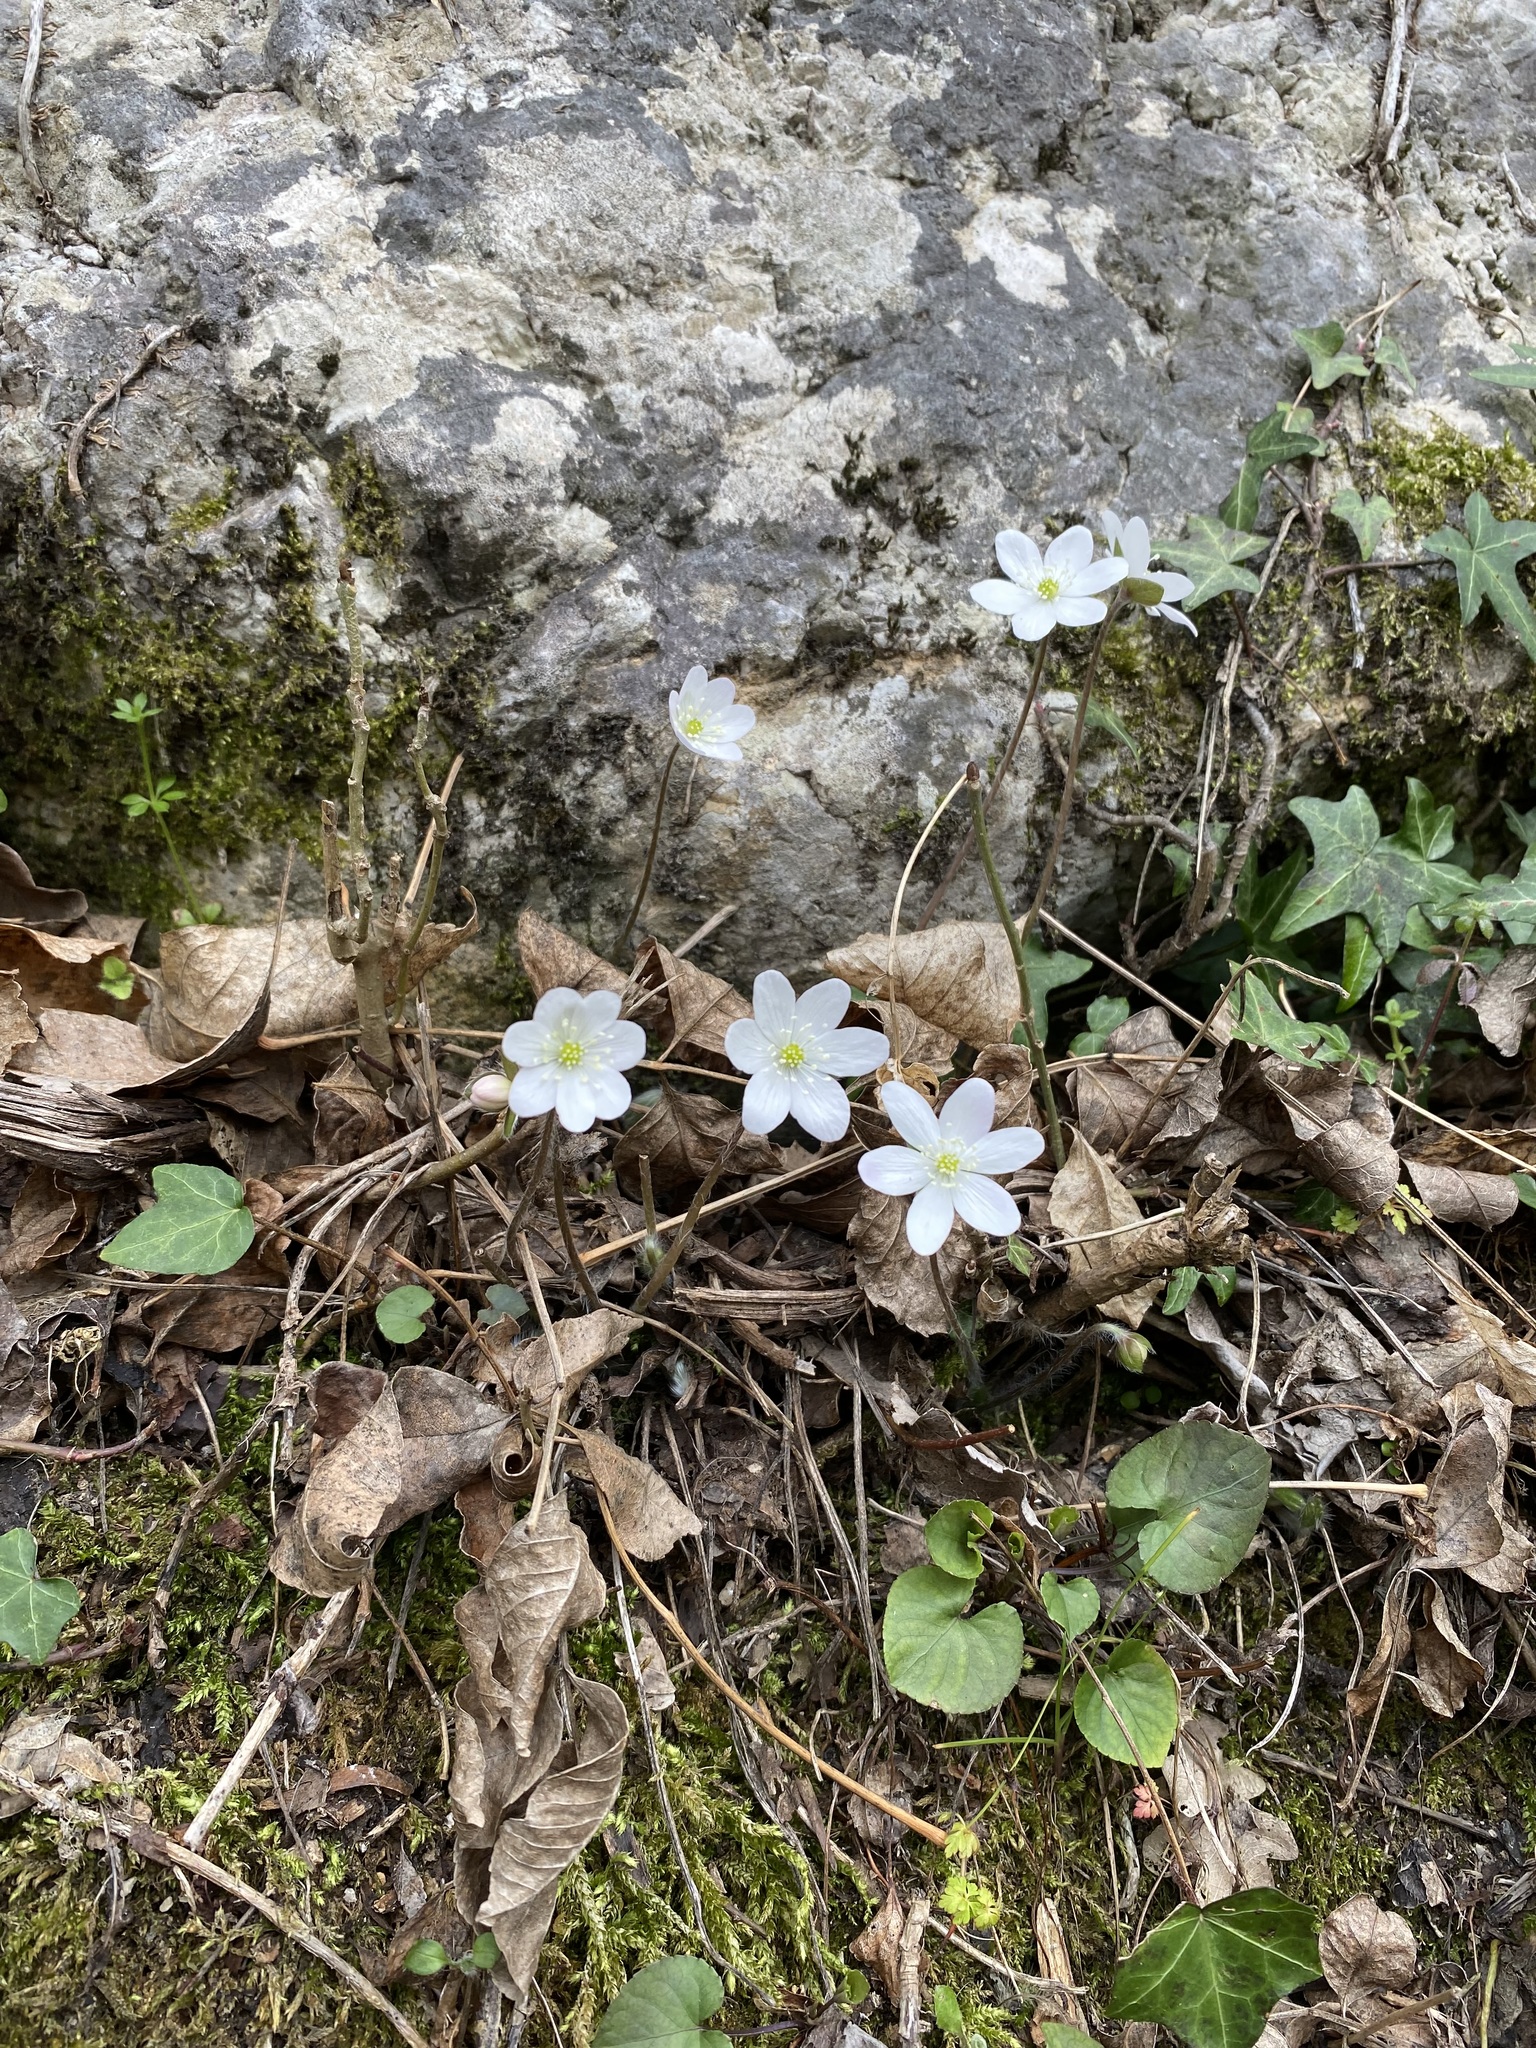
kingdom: Plantae
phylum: Tracheophyta
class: Magnoliopsida
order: Ranunculales
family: Ranunculaceae
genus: Hepatica
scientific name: Hepatica nobilis
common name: Liverleaf
